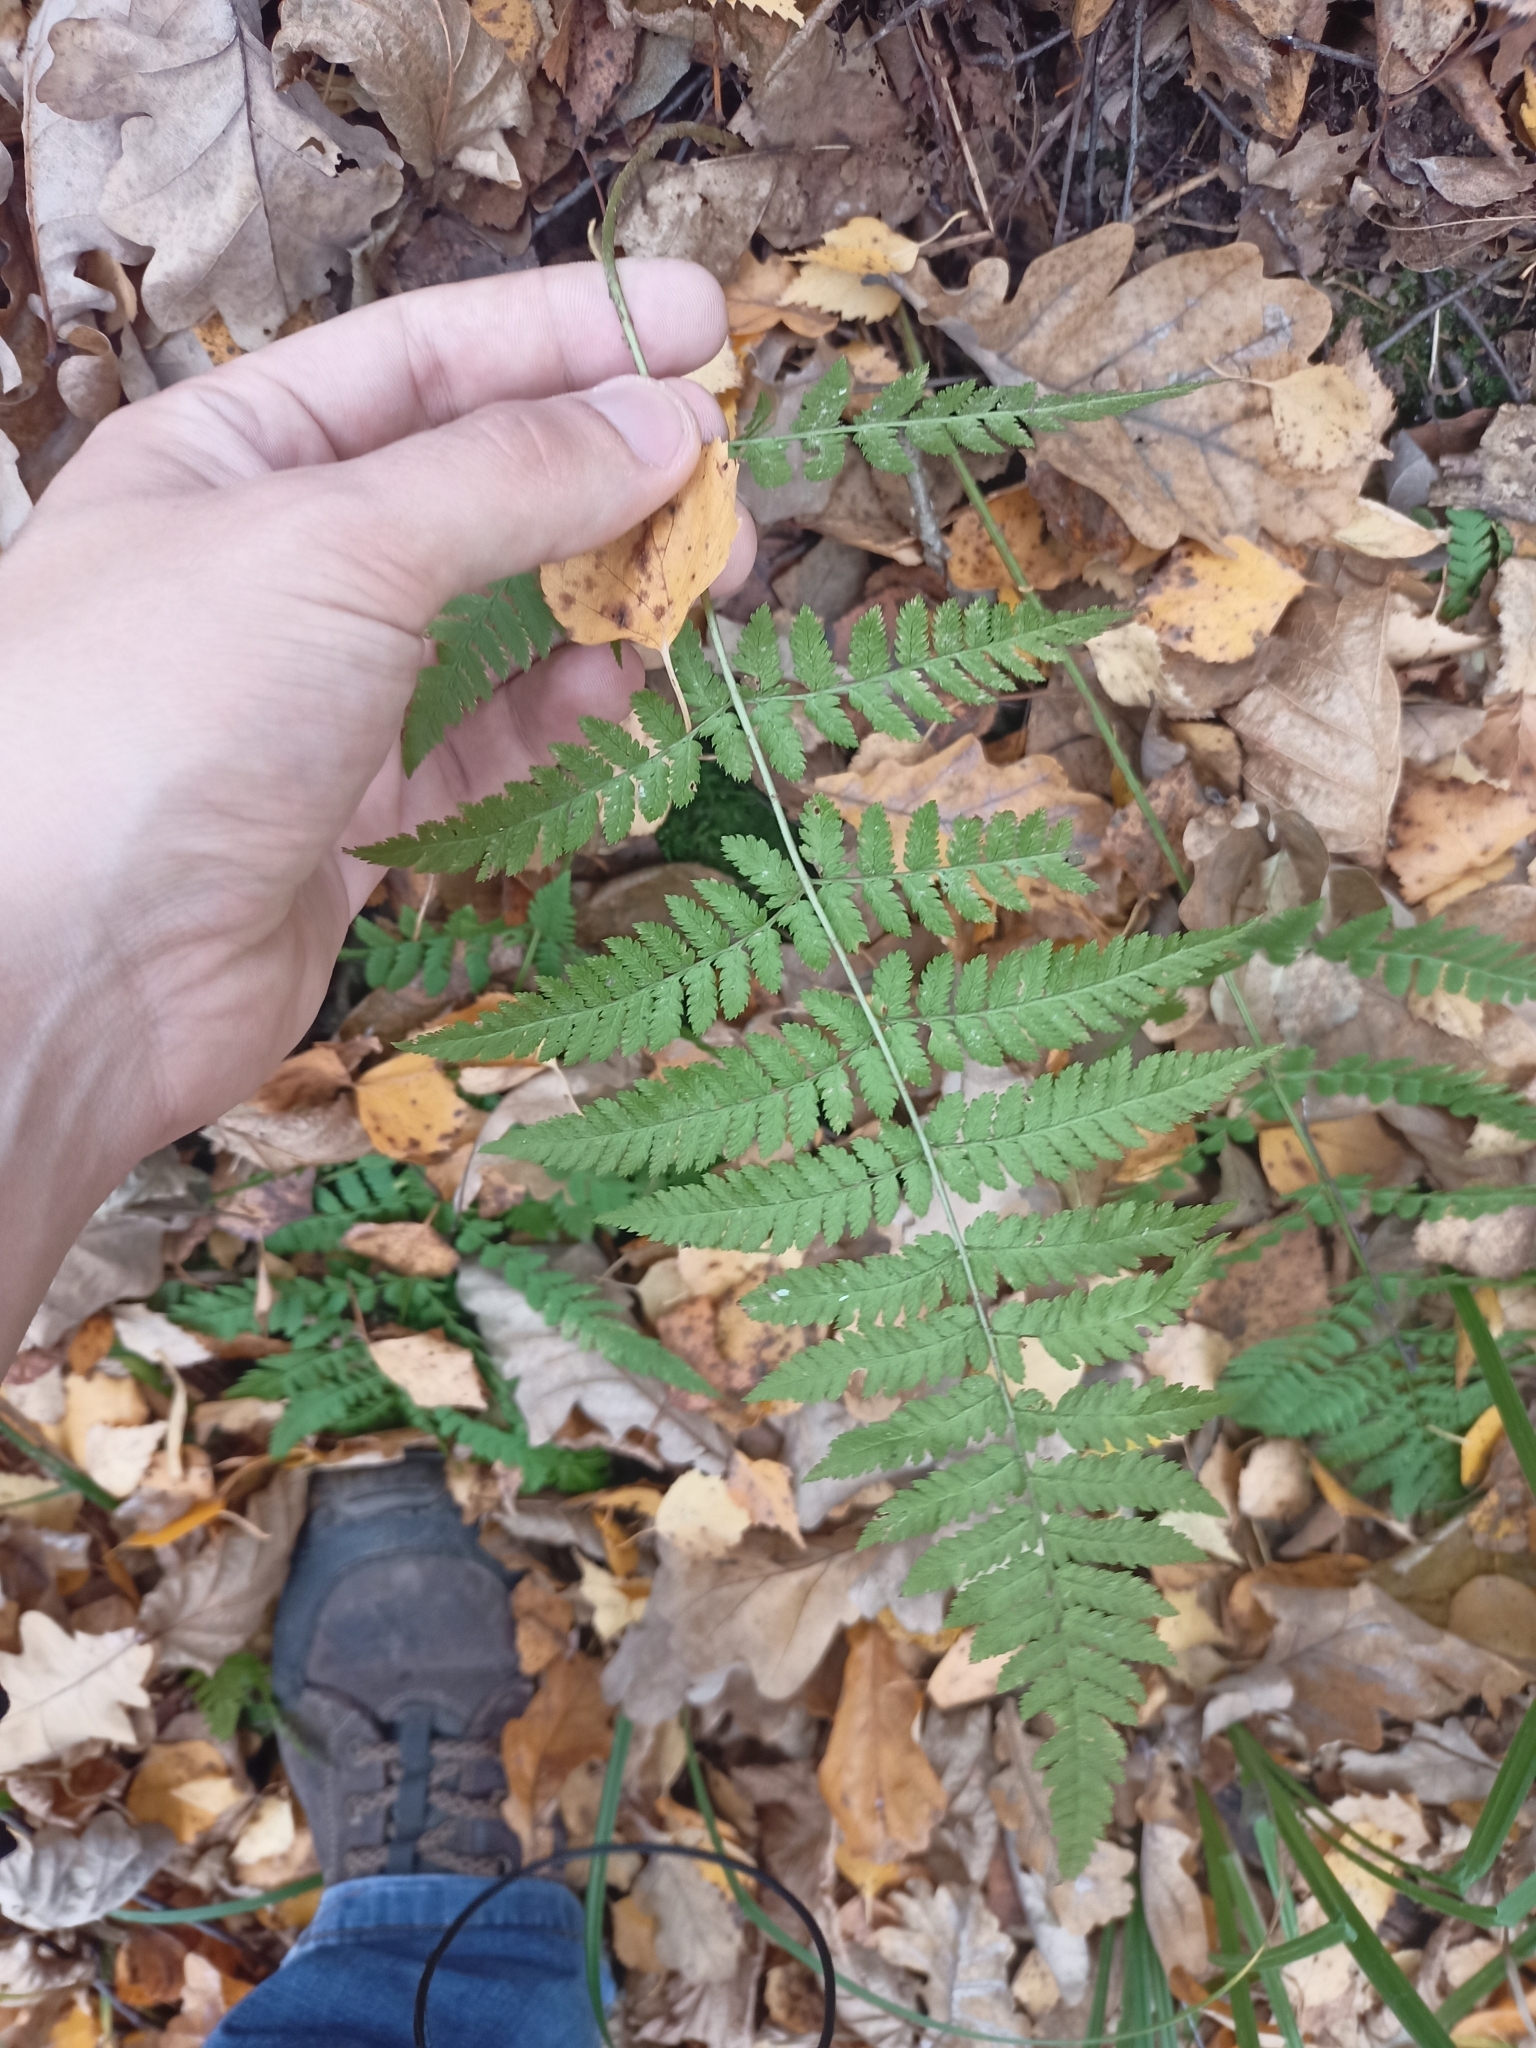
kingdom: Plantae
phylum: Tracheophyta
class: Polypodiopsida
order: Polypodiales
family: Dryopteridaceae
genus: Dryopteris
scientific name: Dryopteris carthusiana
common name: Narrow buckler-fern
